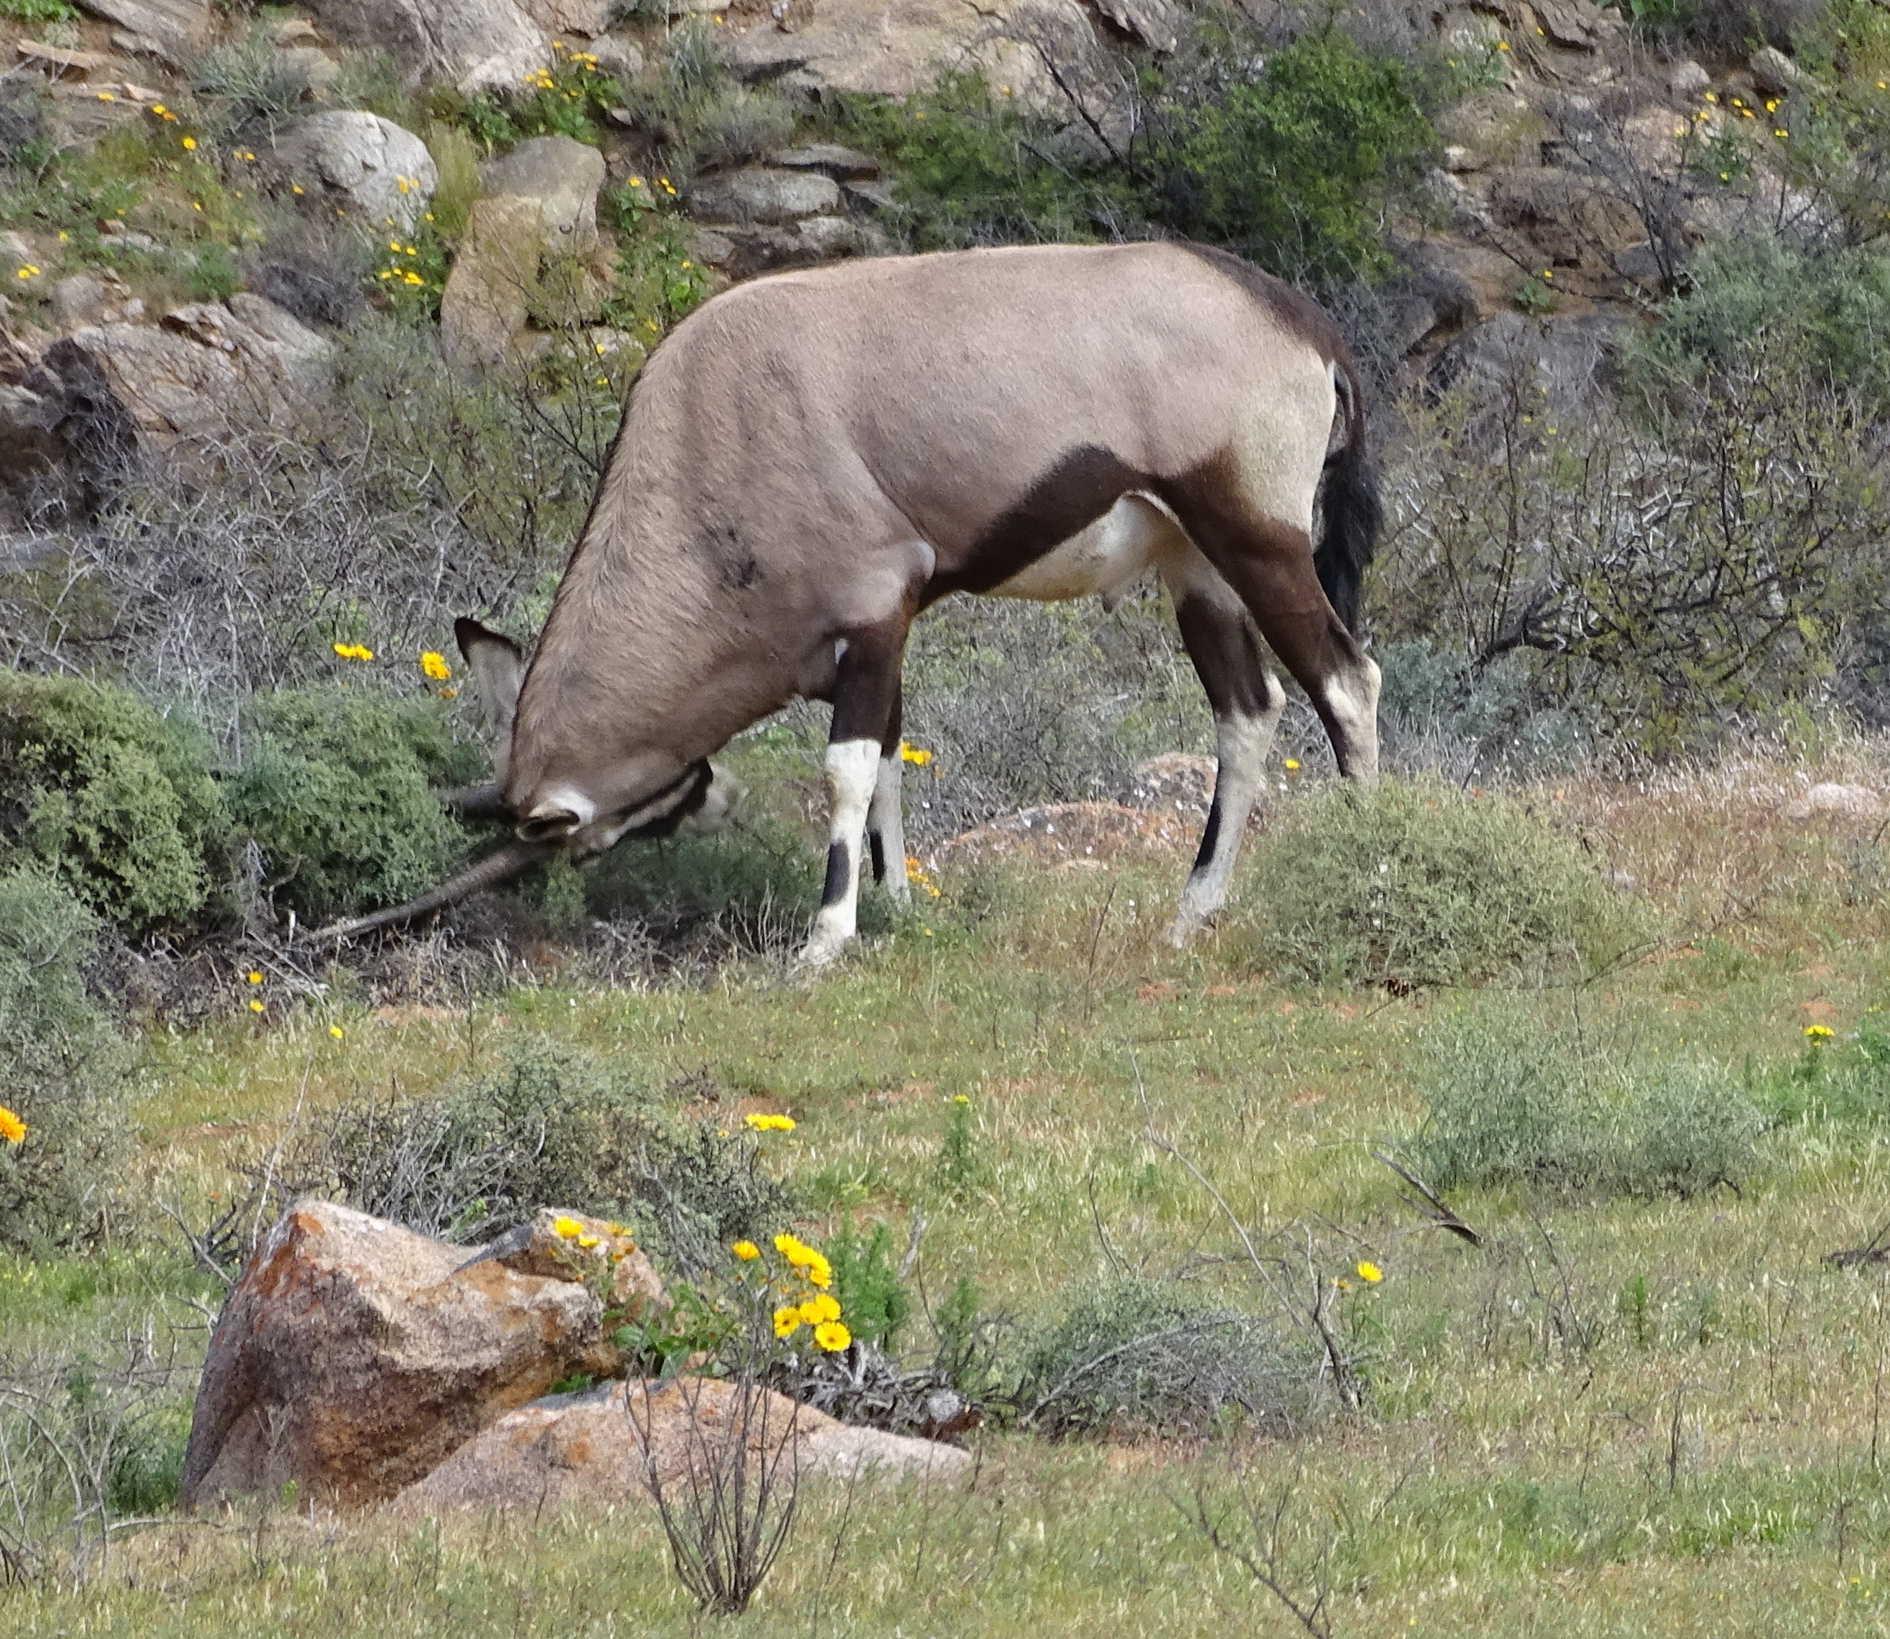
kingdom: Animalia
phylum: Chordata
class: Mammalia
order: Artiodactyla
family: Bovidae
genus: Oryx
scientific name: Oryx gazella
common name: Gemsbok
